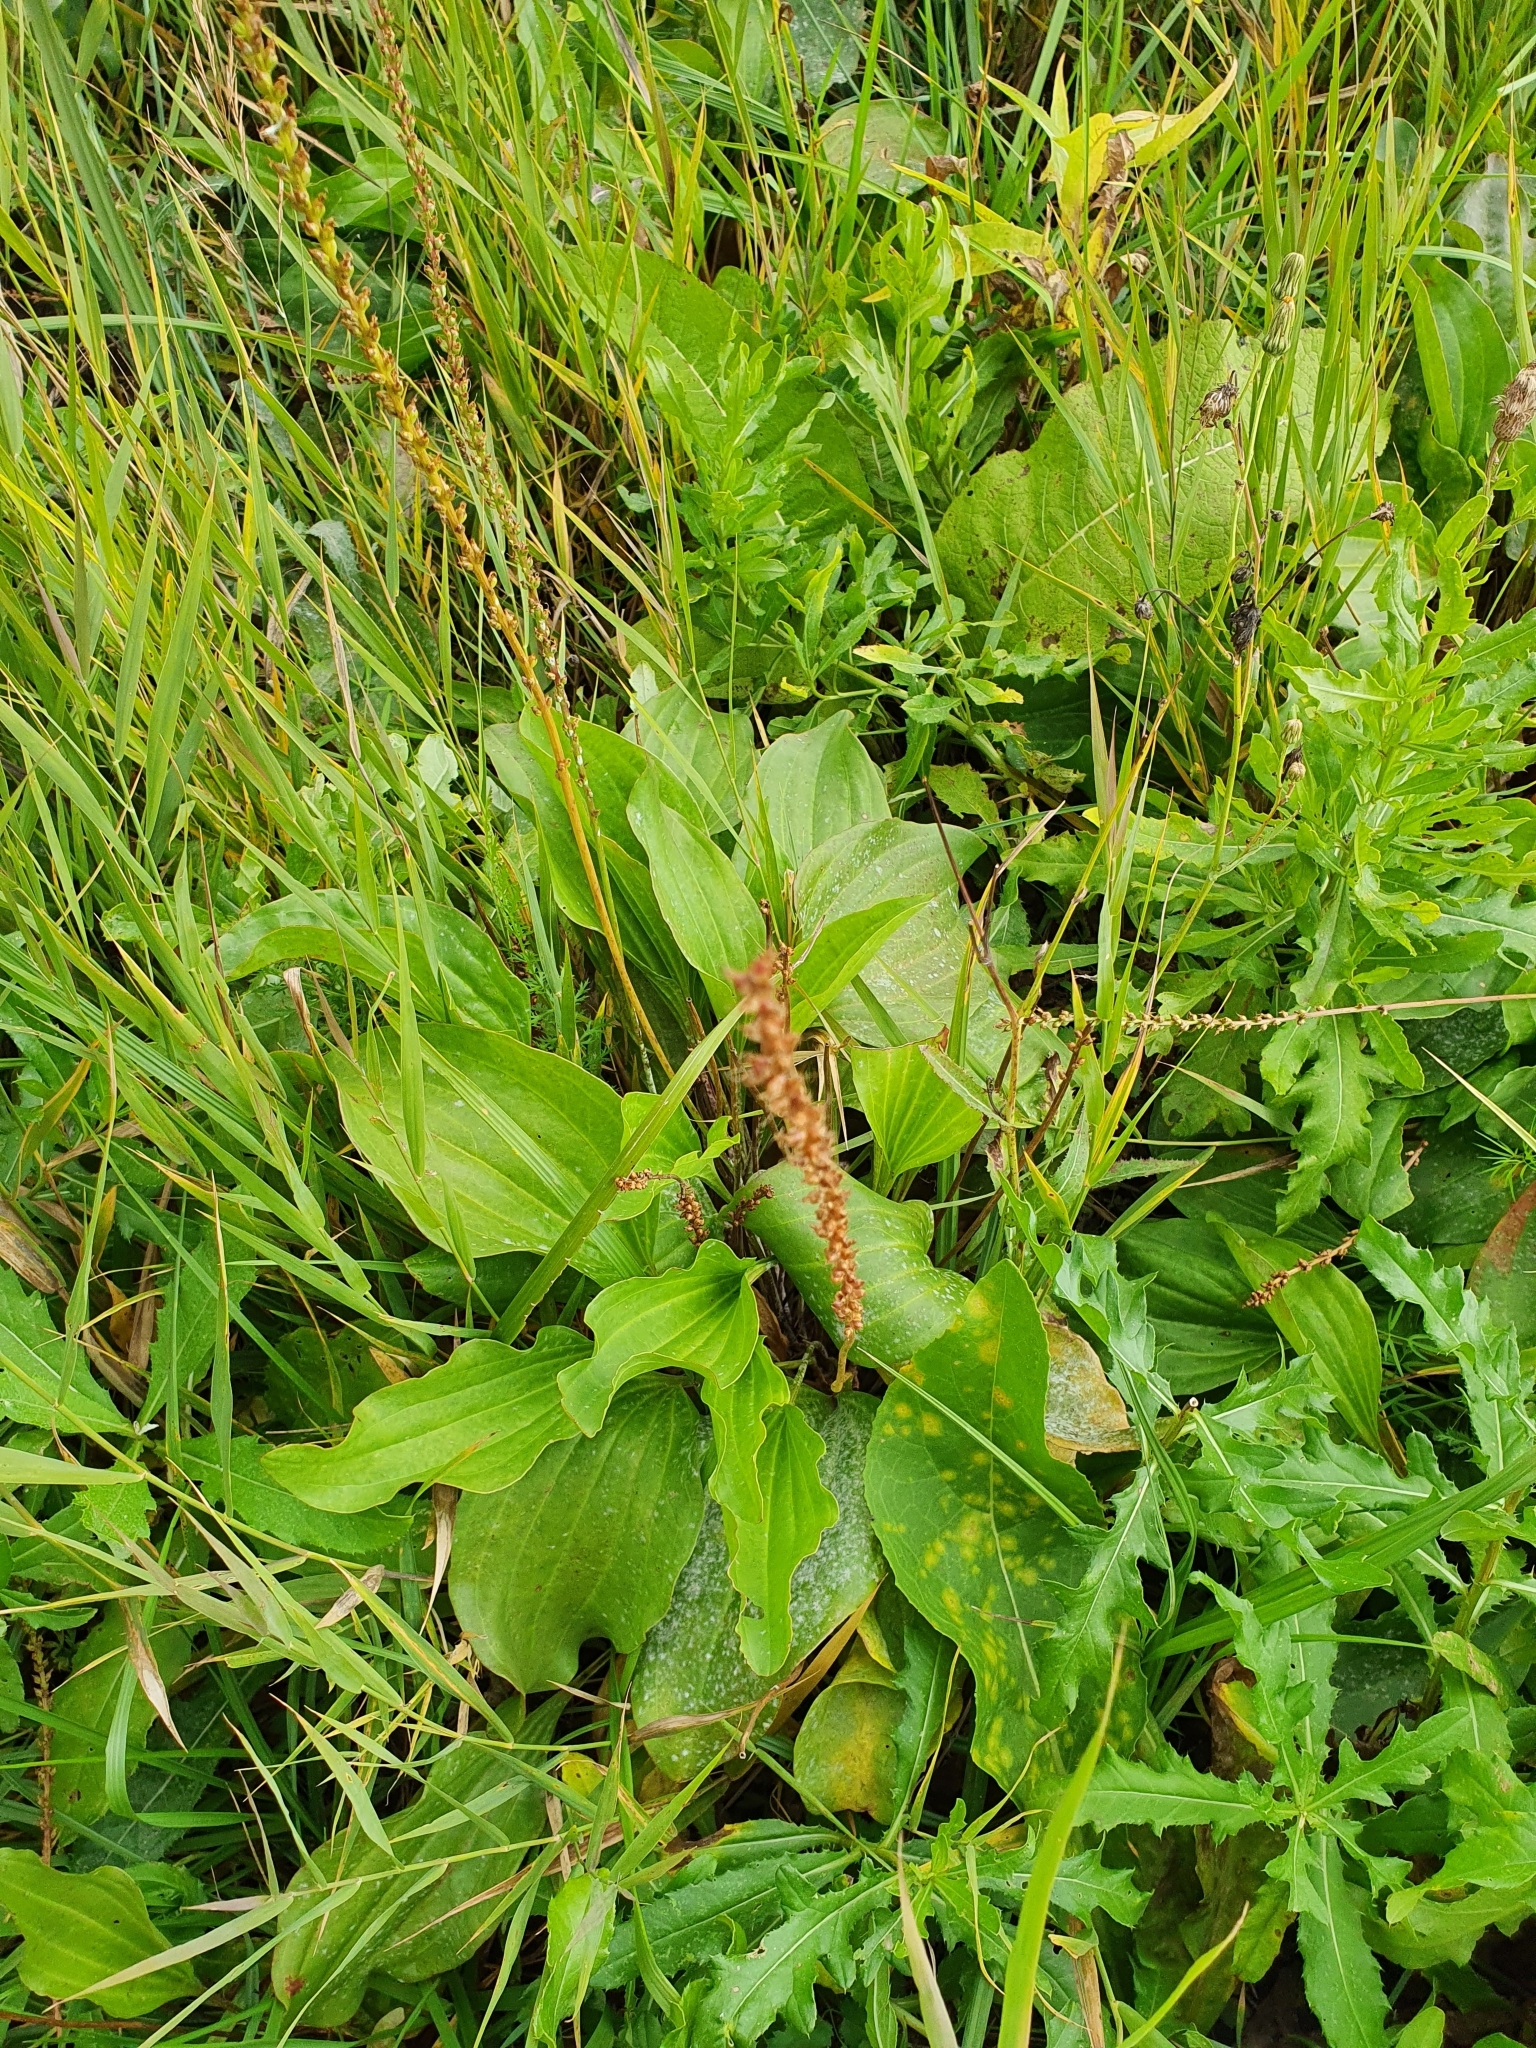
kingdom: Plantae
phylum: Tracheophyta
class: Magnoliopsida
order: Lamiales
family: Plantaginaceae
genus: Plantago
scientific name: Plantago cornuti
